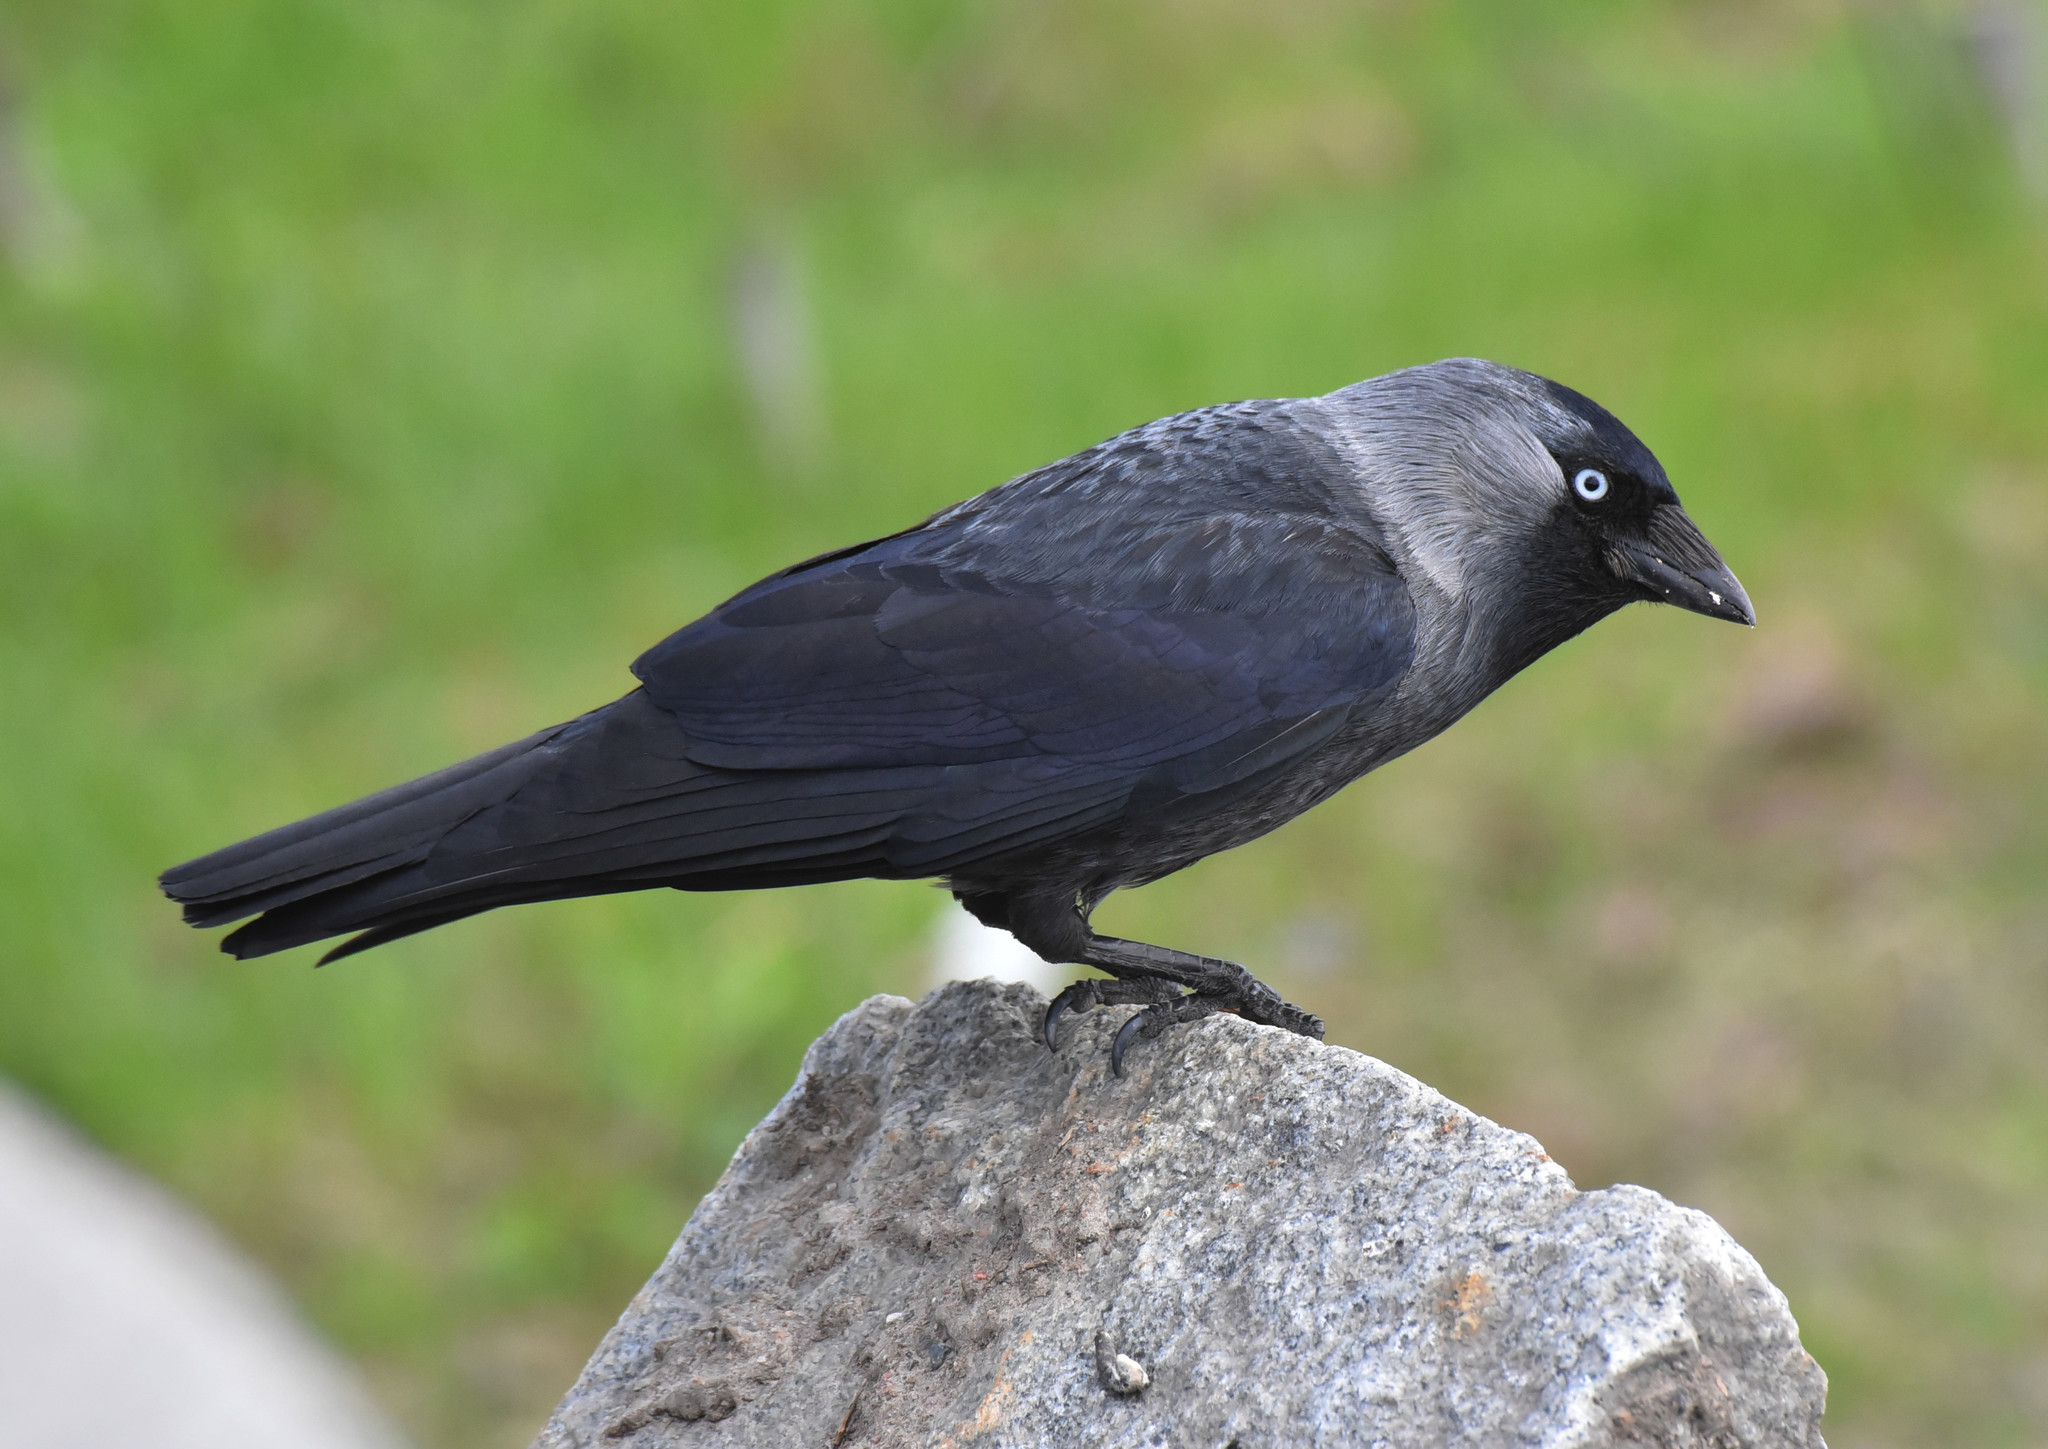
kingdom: Animalia
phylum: Chordata
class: Aves
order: Passeriformes
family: Corvidae
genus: Coloeus
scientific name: Coloeus monedula
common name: Western jackdaw
